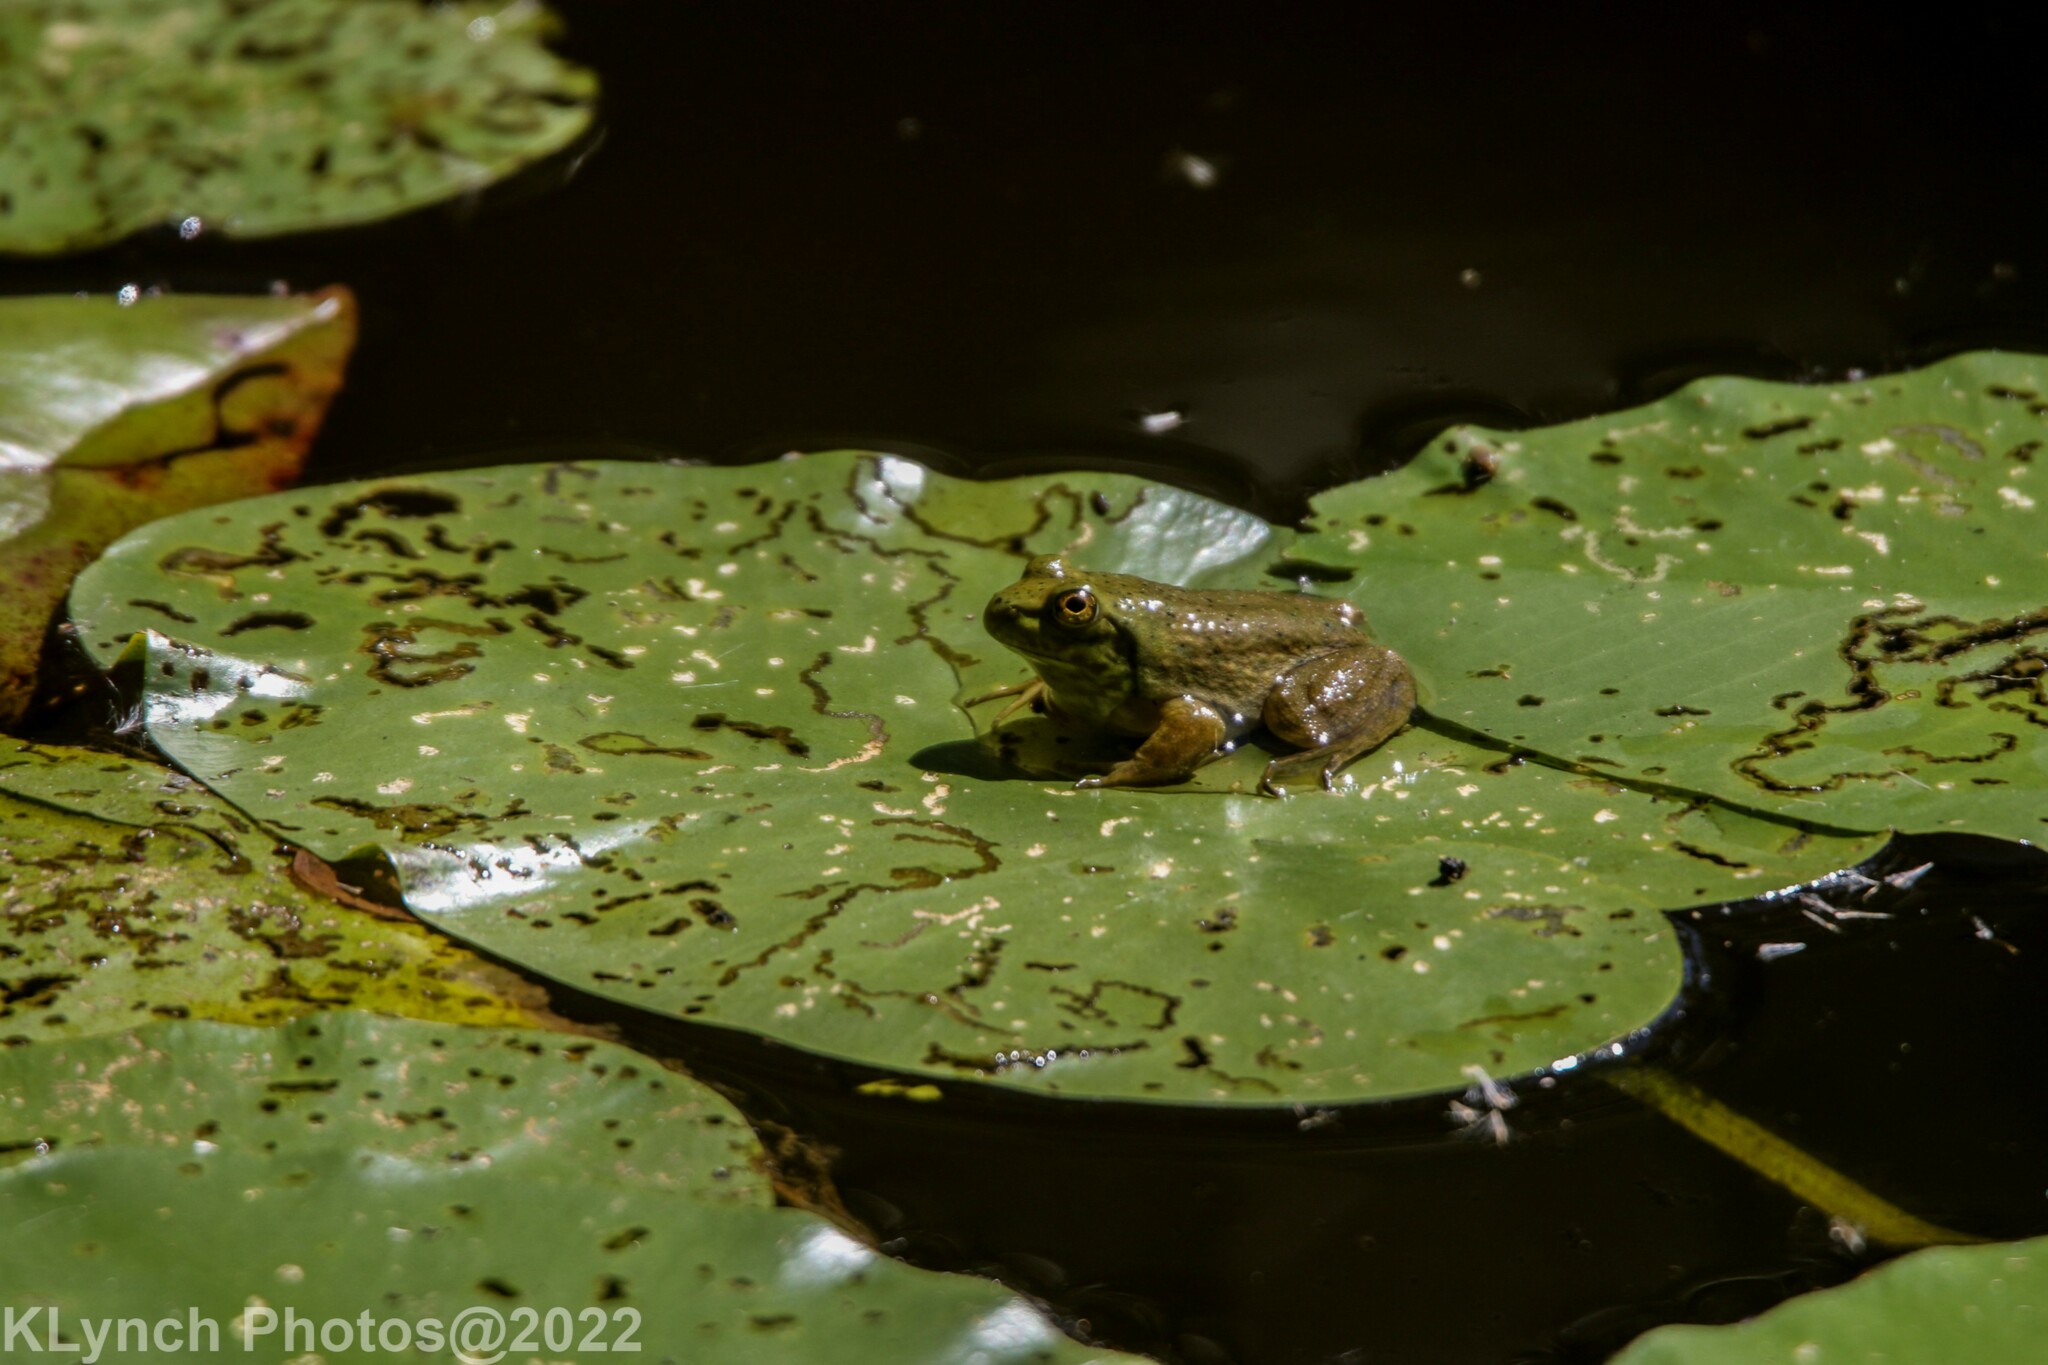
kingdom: Animalia
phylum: Chordata
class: Amphibia
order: Anura
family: Ranidae
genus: Lithobates
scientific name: Lithobates catesbeianus
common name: American bullfrog
